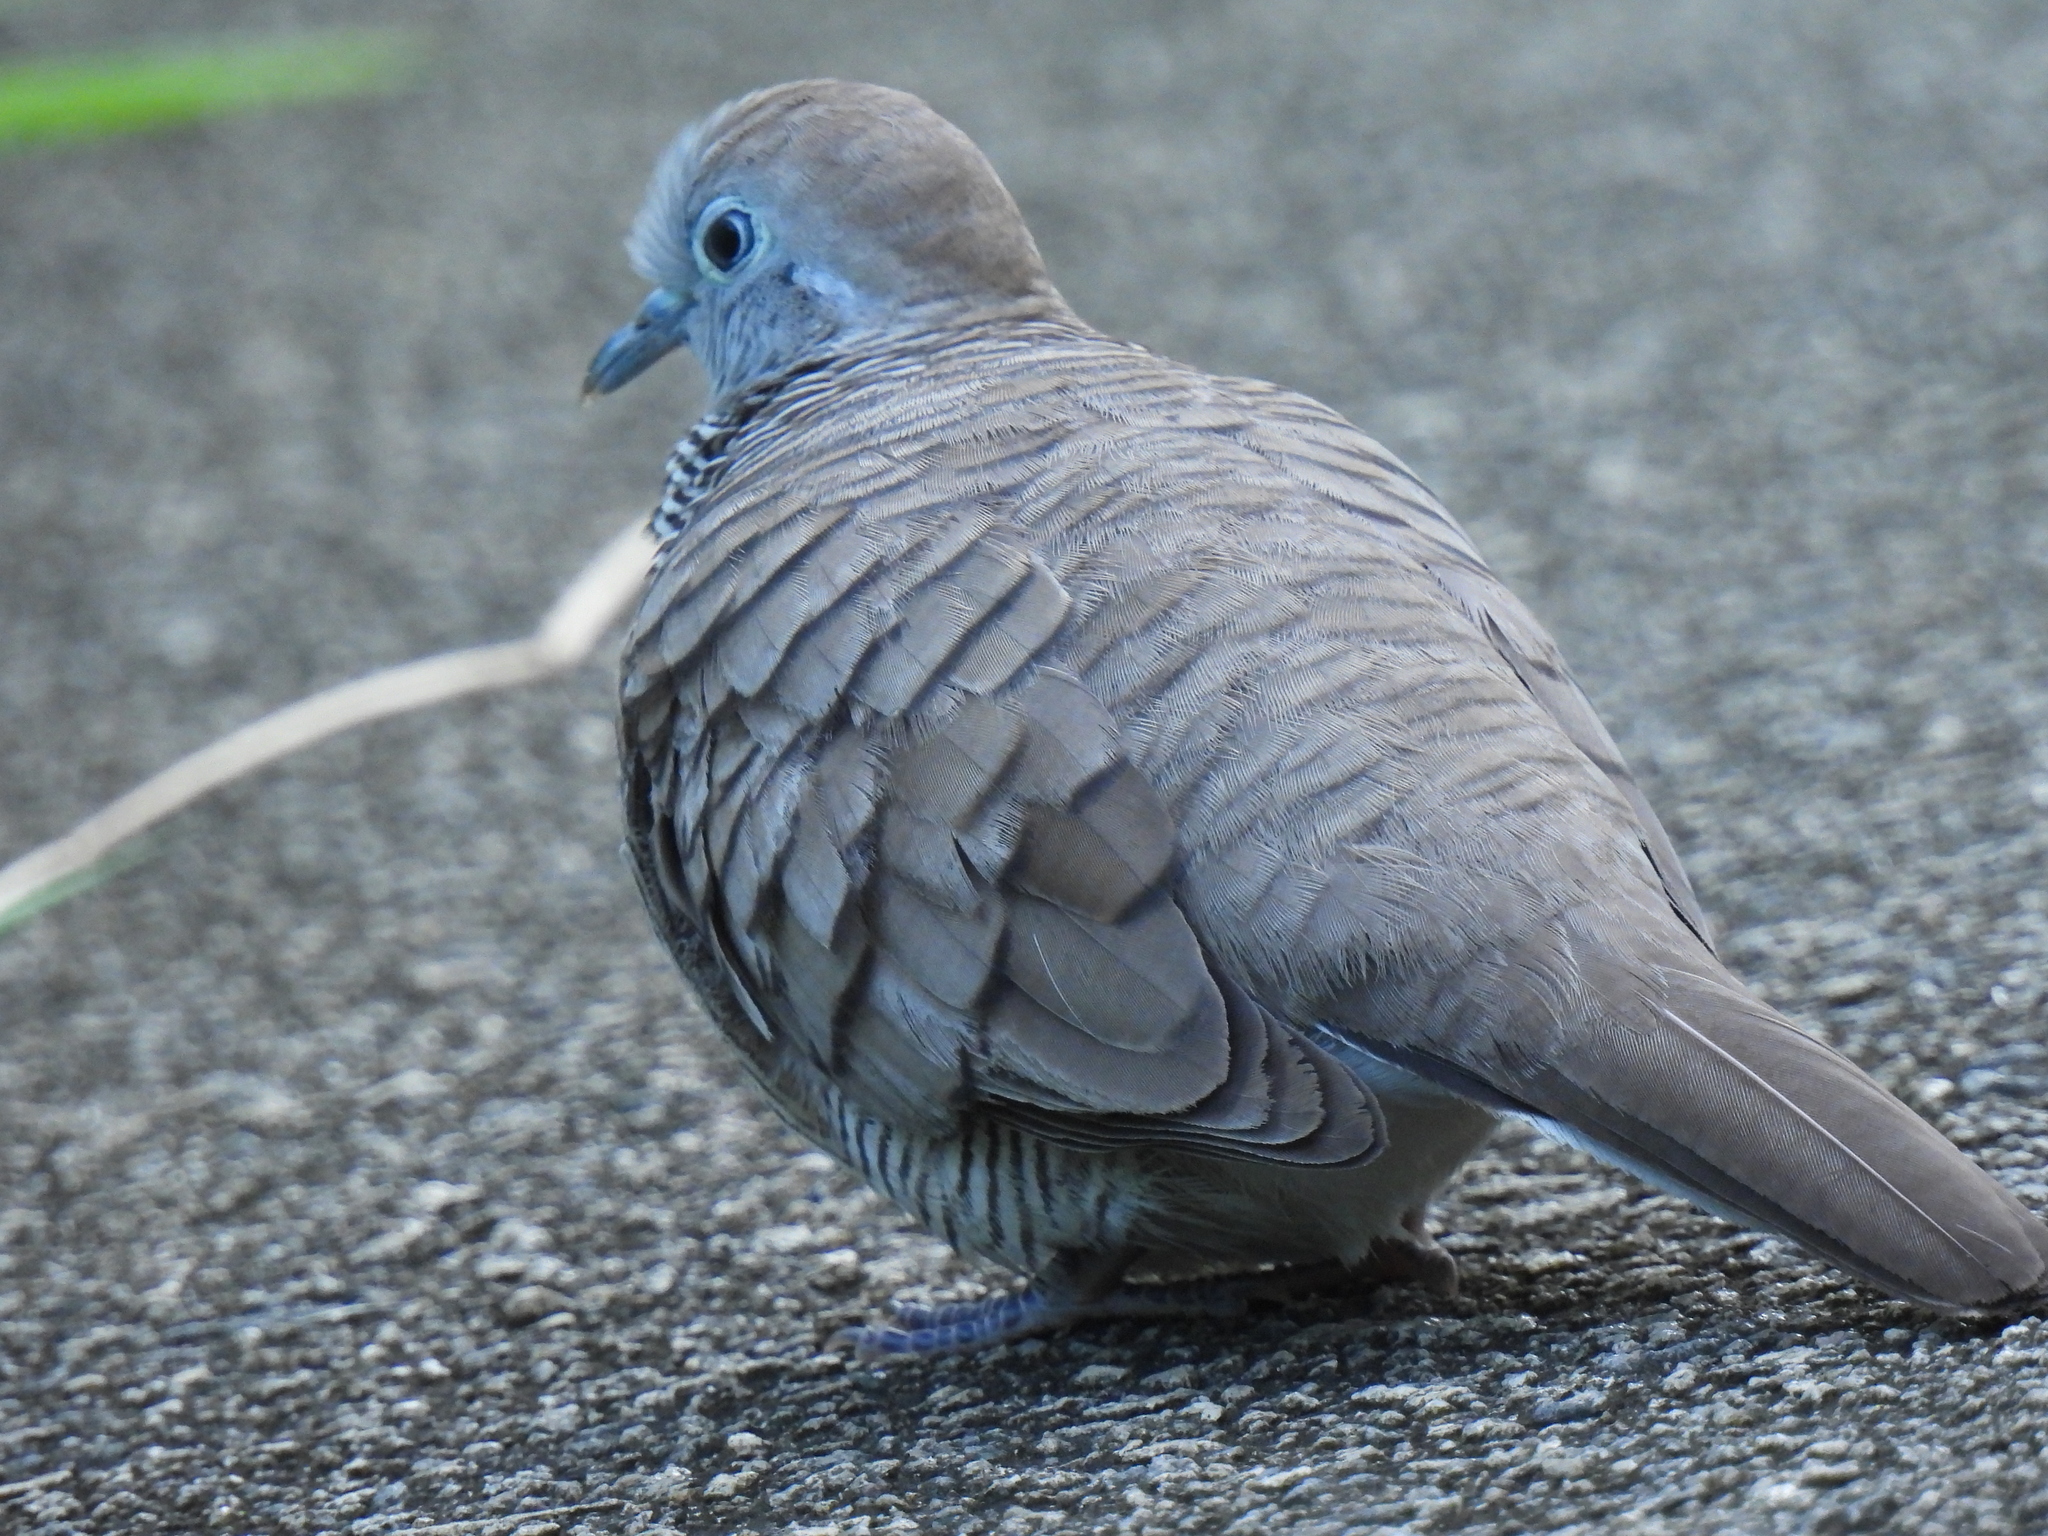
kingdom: Animalia
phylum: Chordata
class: Aves
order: Columbiformes
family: Columbidae
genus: Geopelia
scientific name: Geopelia striata
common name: Zebra dove
